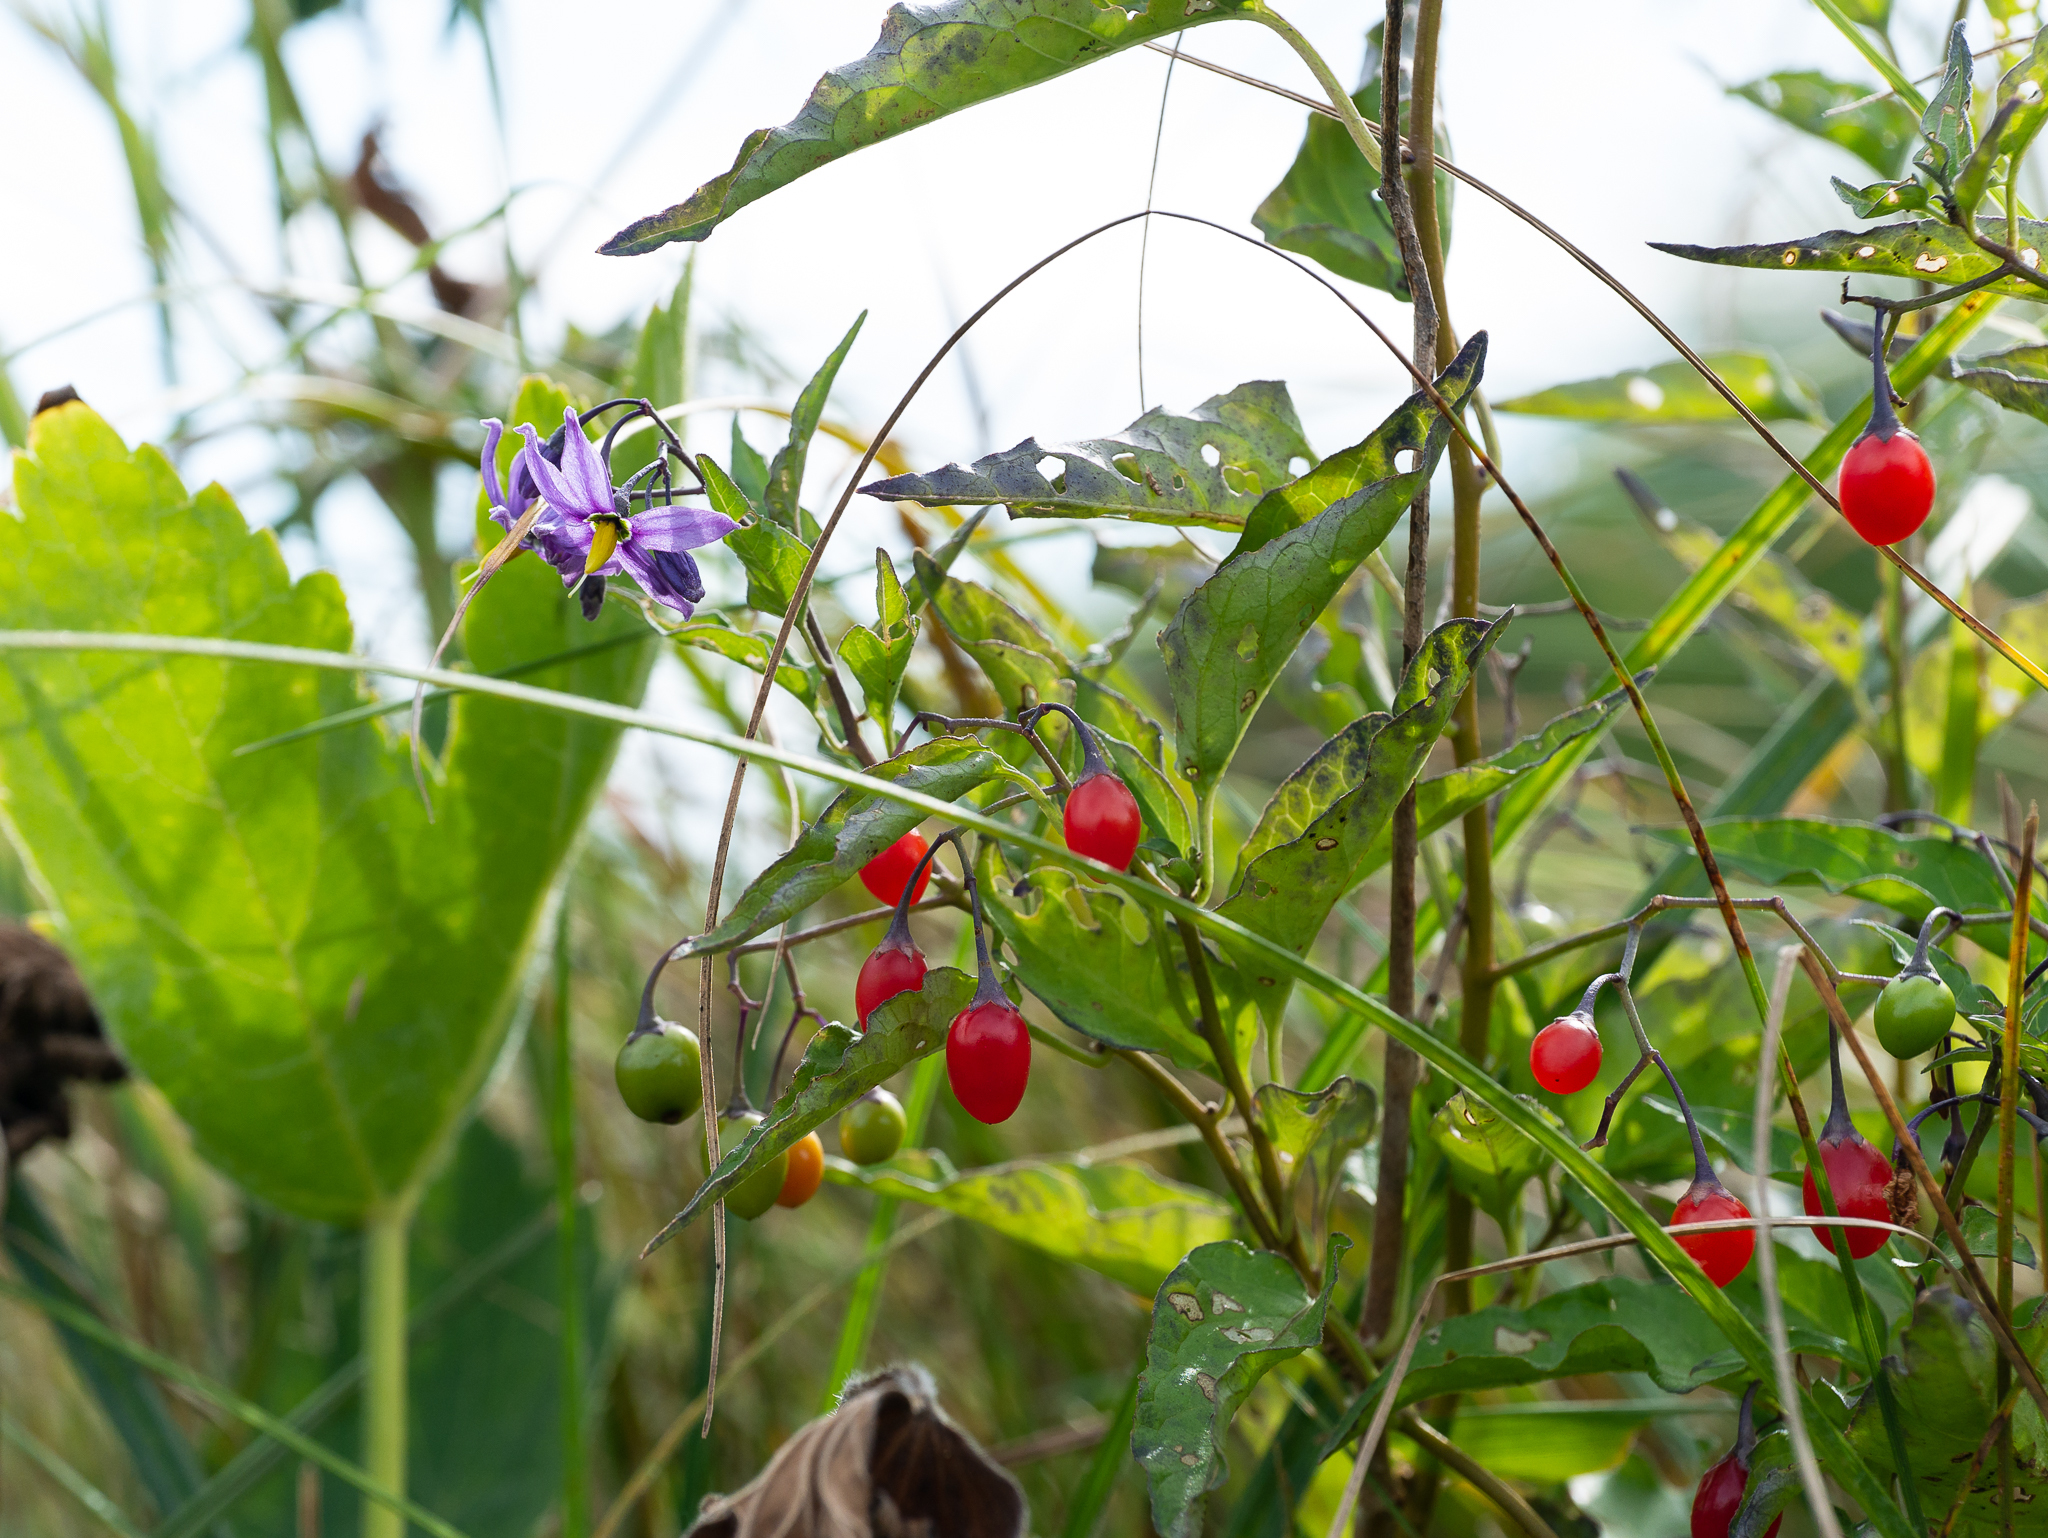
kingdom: Plantae
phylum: Tracheophyta
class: Magnoliopsida
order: Solanales
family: Solanaceae
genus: Solanum
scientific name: Solanum dulcamara
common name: Climbing nightshade
